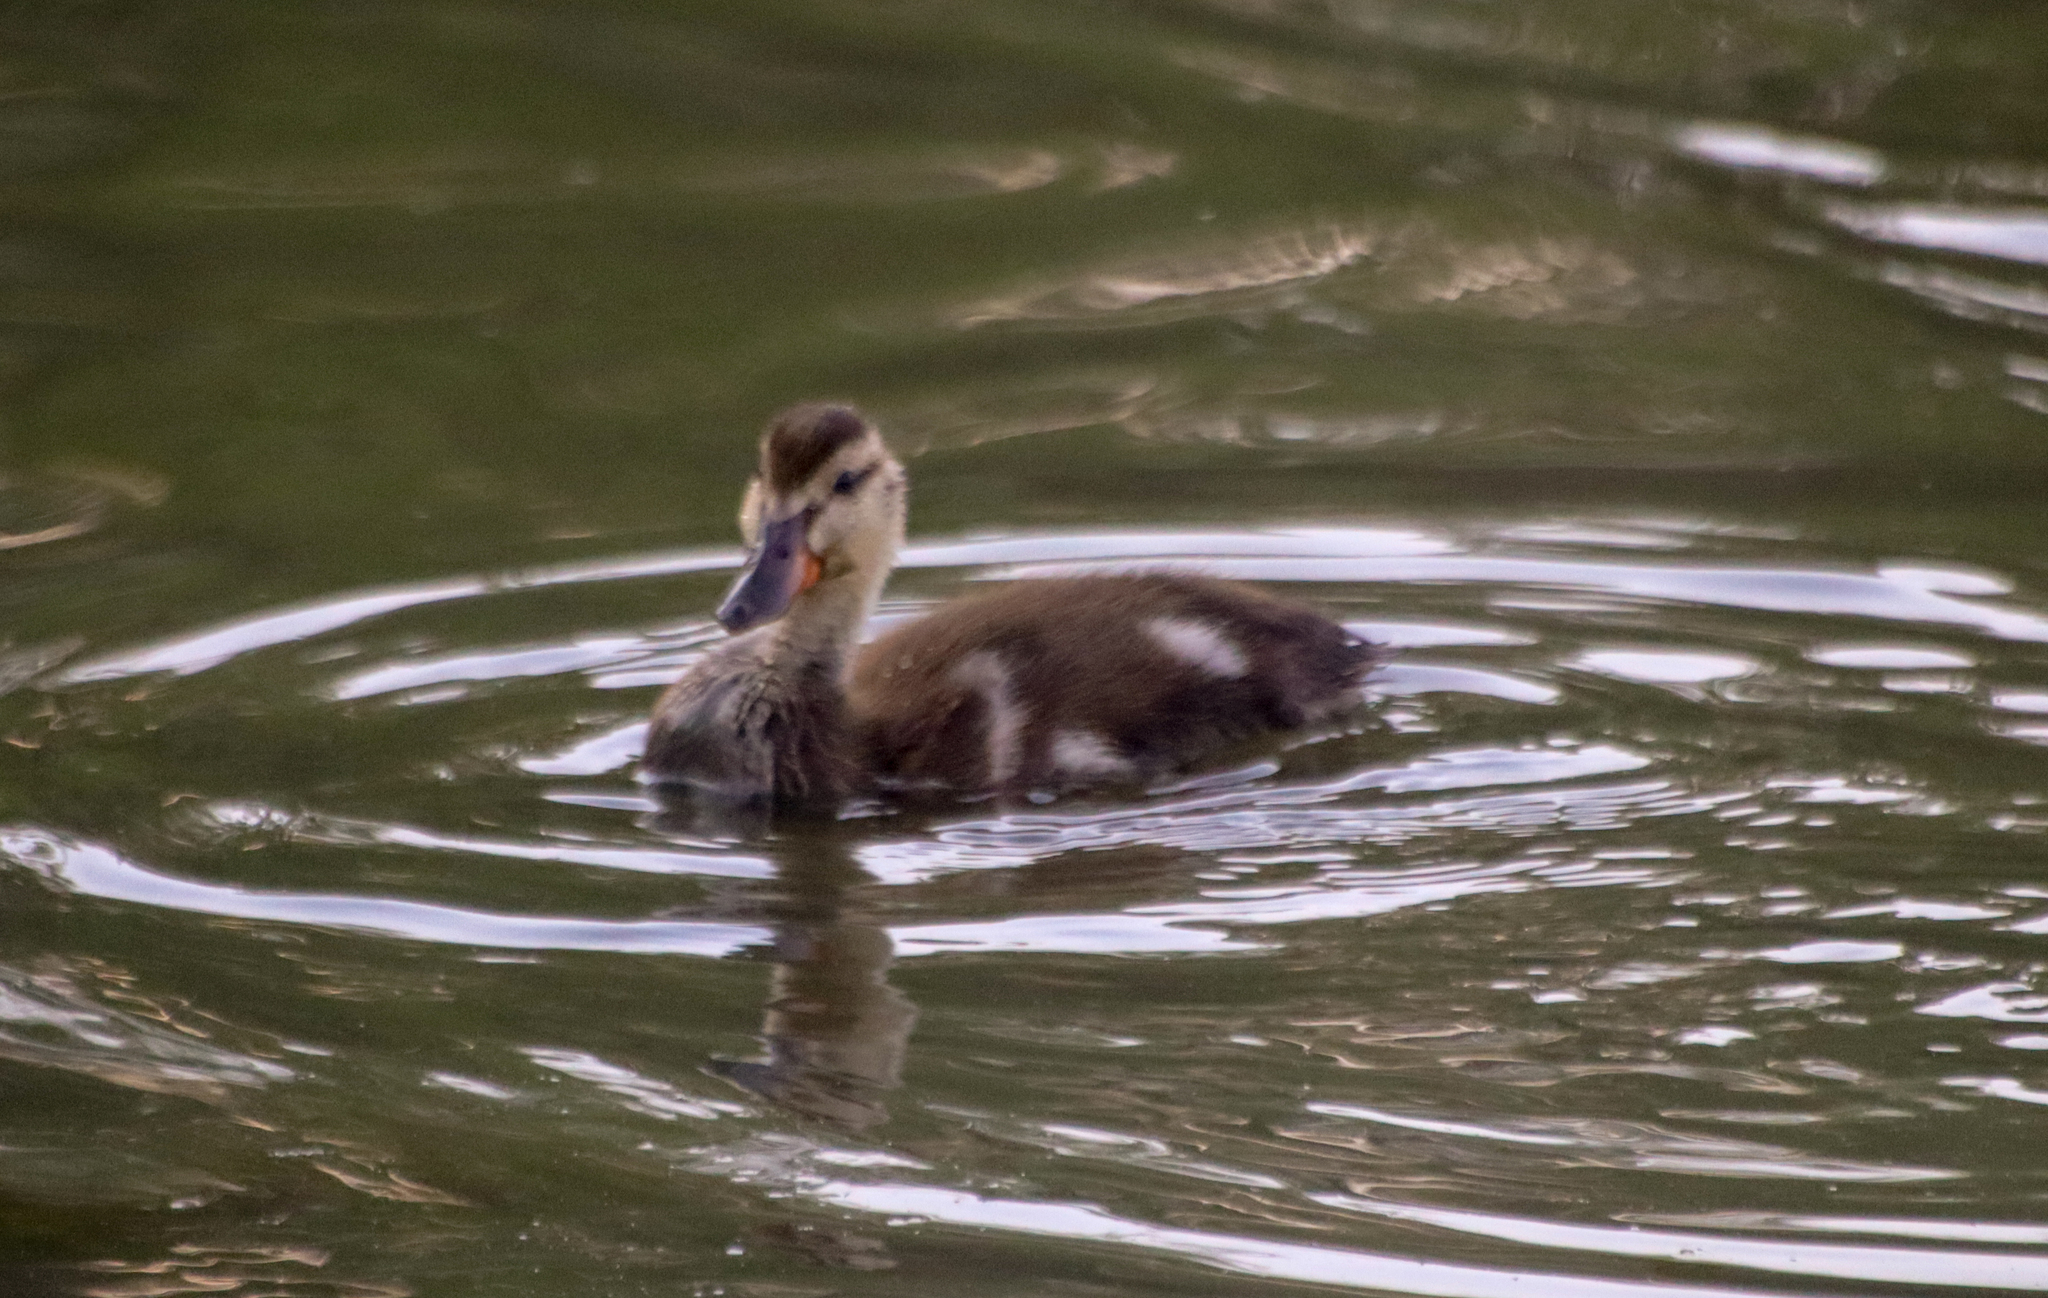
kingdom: Animalia
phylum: Chordata
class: Aves
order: Anseriformes
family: Anatidae
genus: Anas
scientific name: Anas platyrhynchos
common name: Mallard
